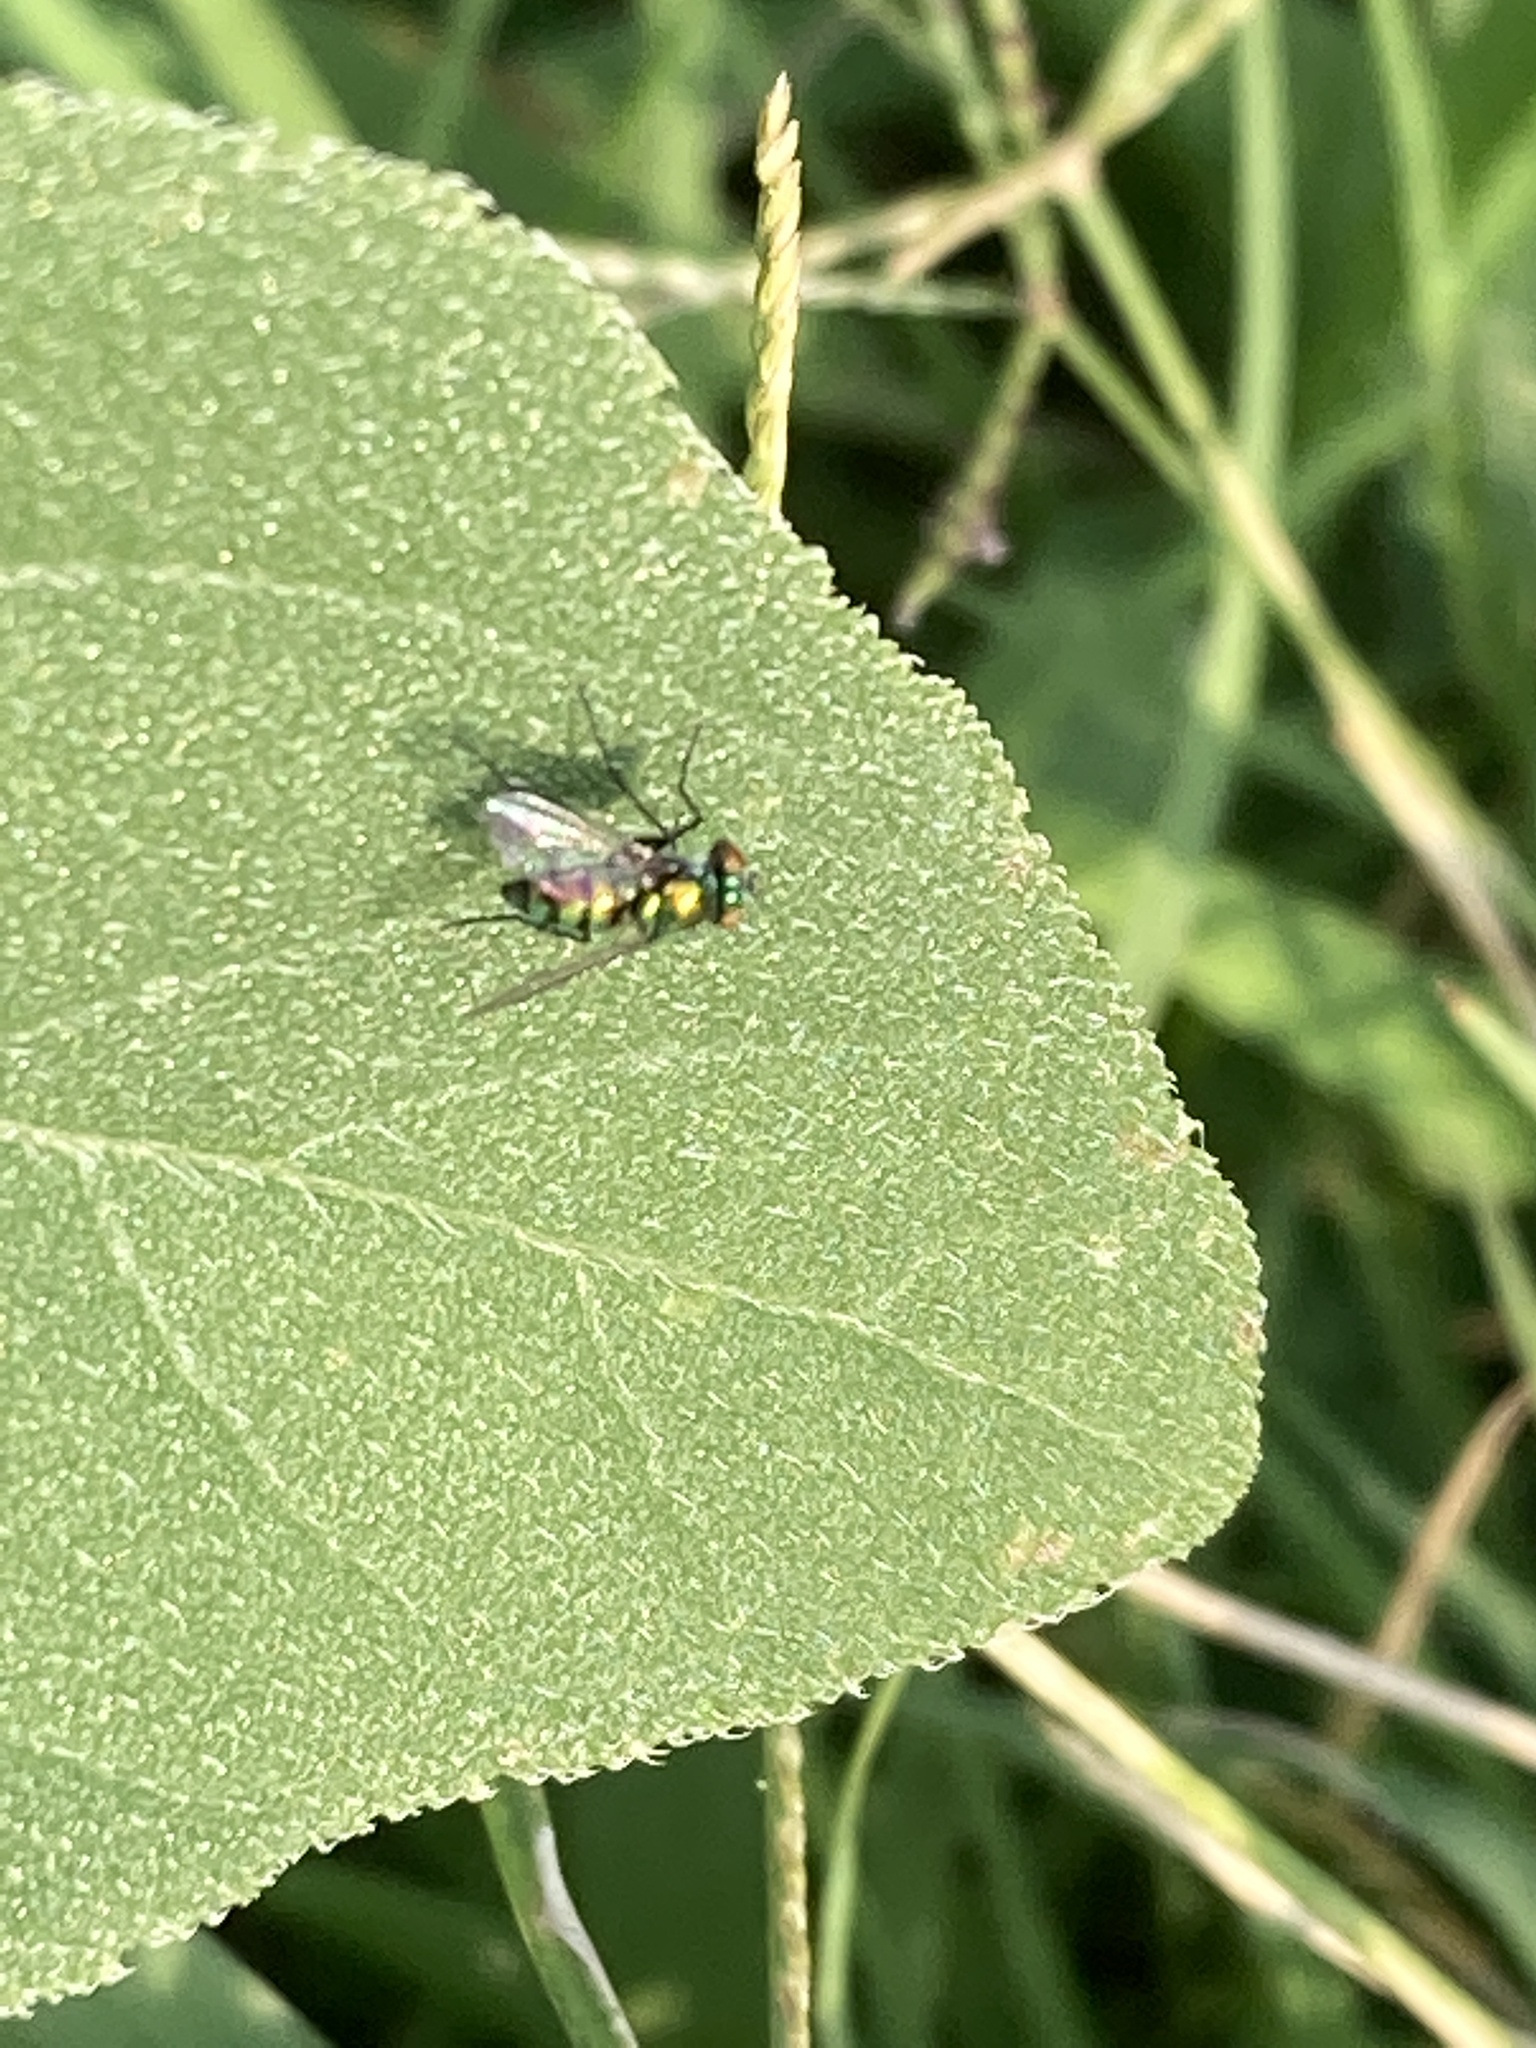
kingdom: Animalia
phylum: Arthropoda
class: Insecta
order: Diptera
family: Dolichopodidae
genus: Condylostylus
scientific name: Condylostylus longicornis
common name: Long-legged fly
